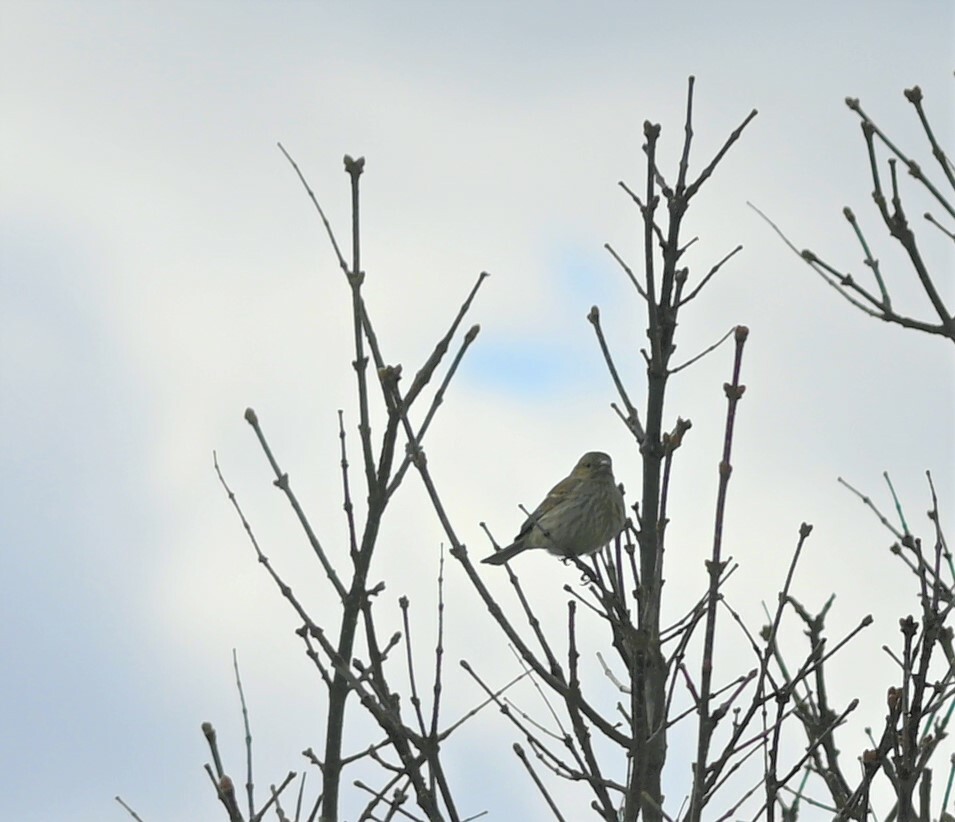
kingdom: Animalia
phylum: Chordata
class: Aves
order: Passeriformes
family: Fringillidae
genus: Haemorhous
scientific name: Haemorhous mexicanus
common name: House finch
